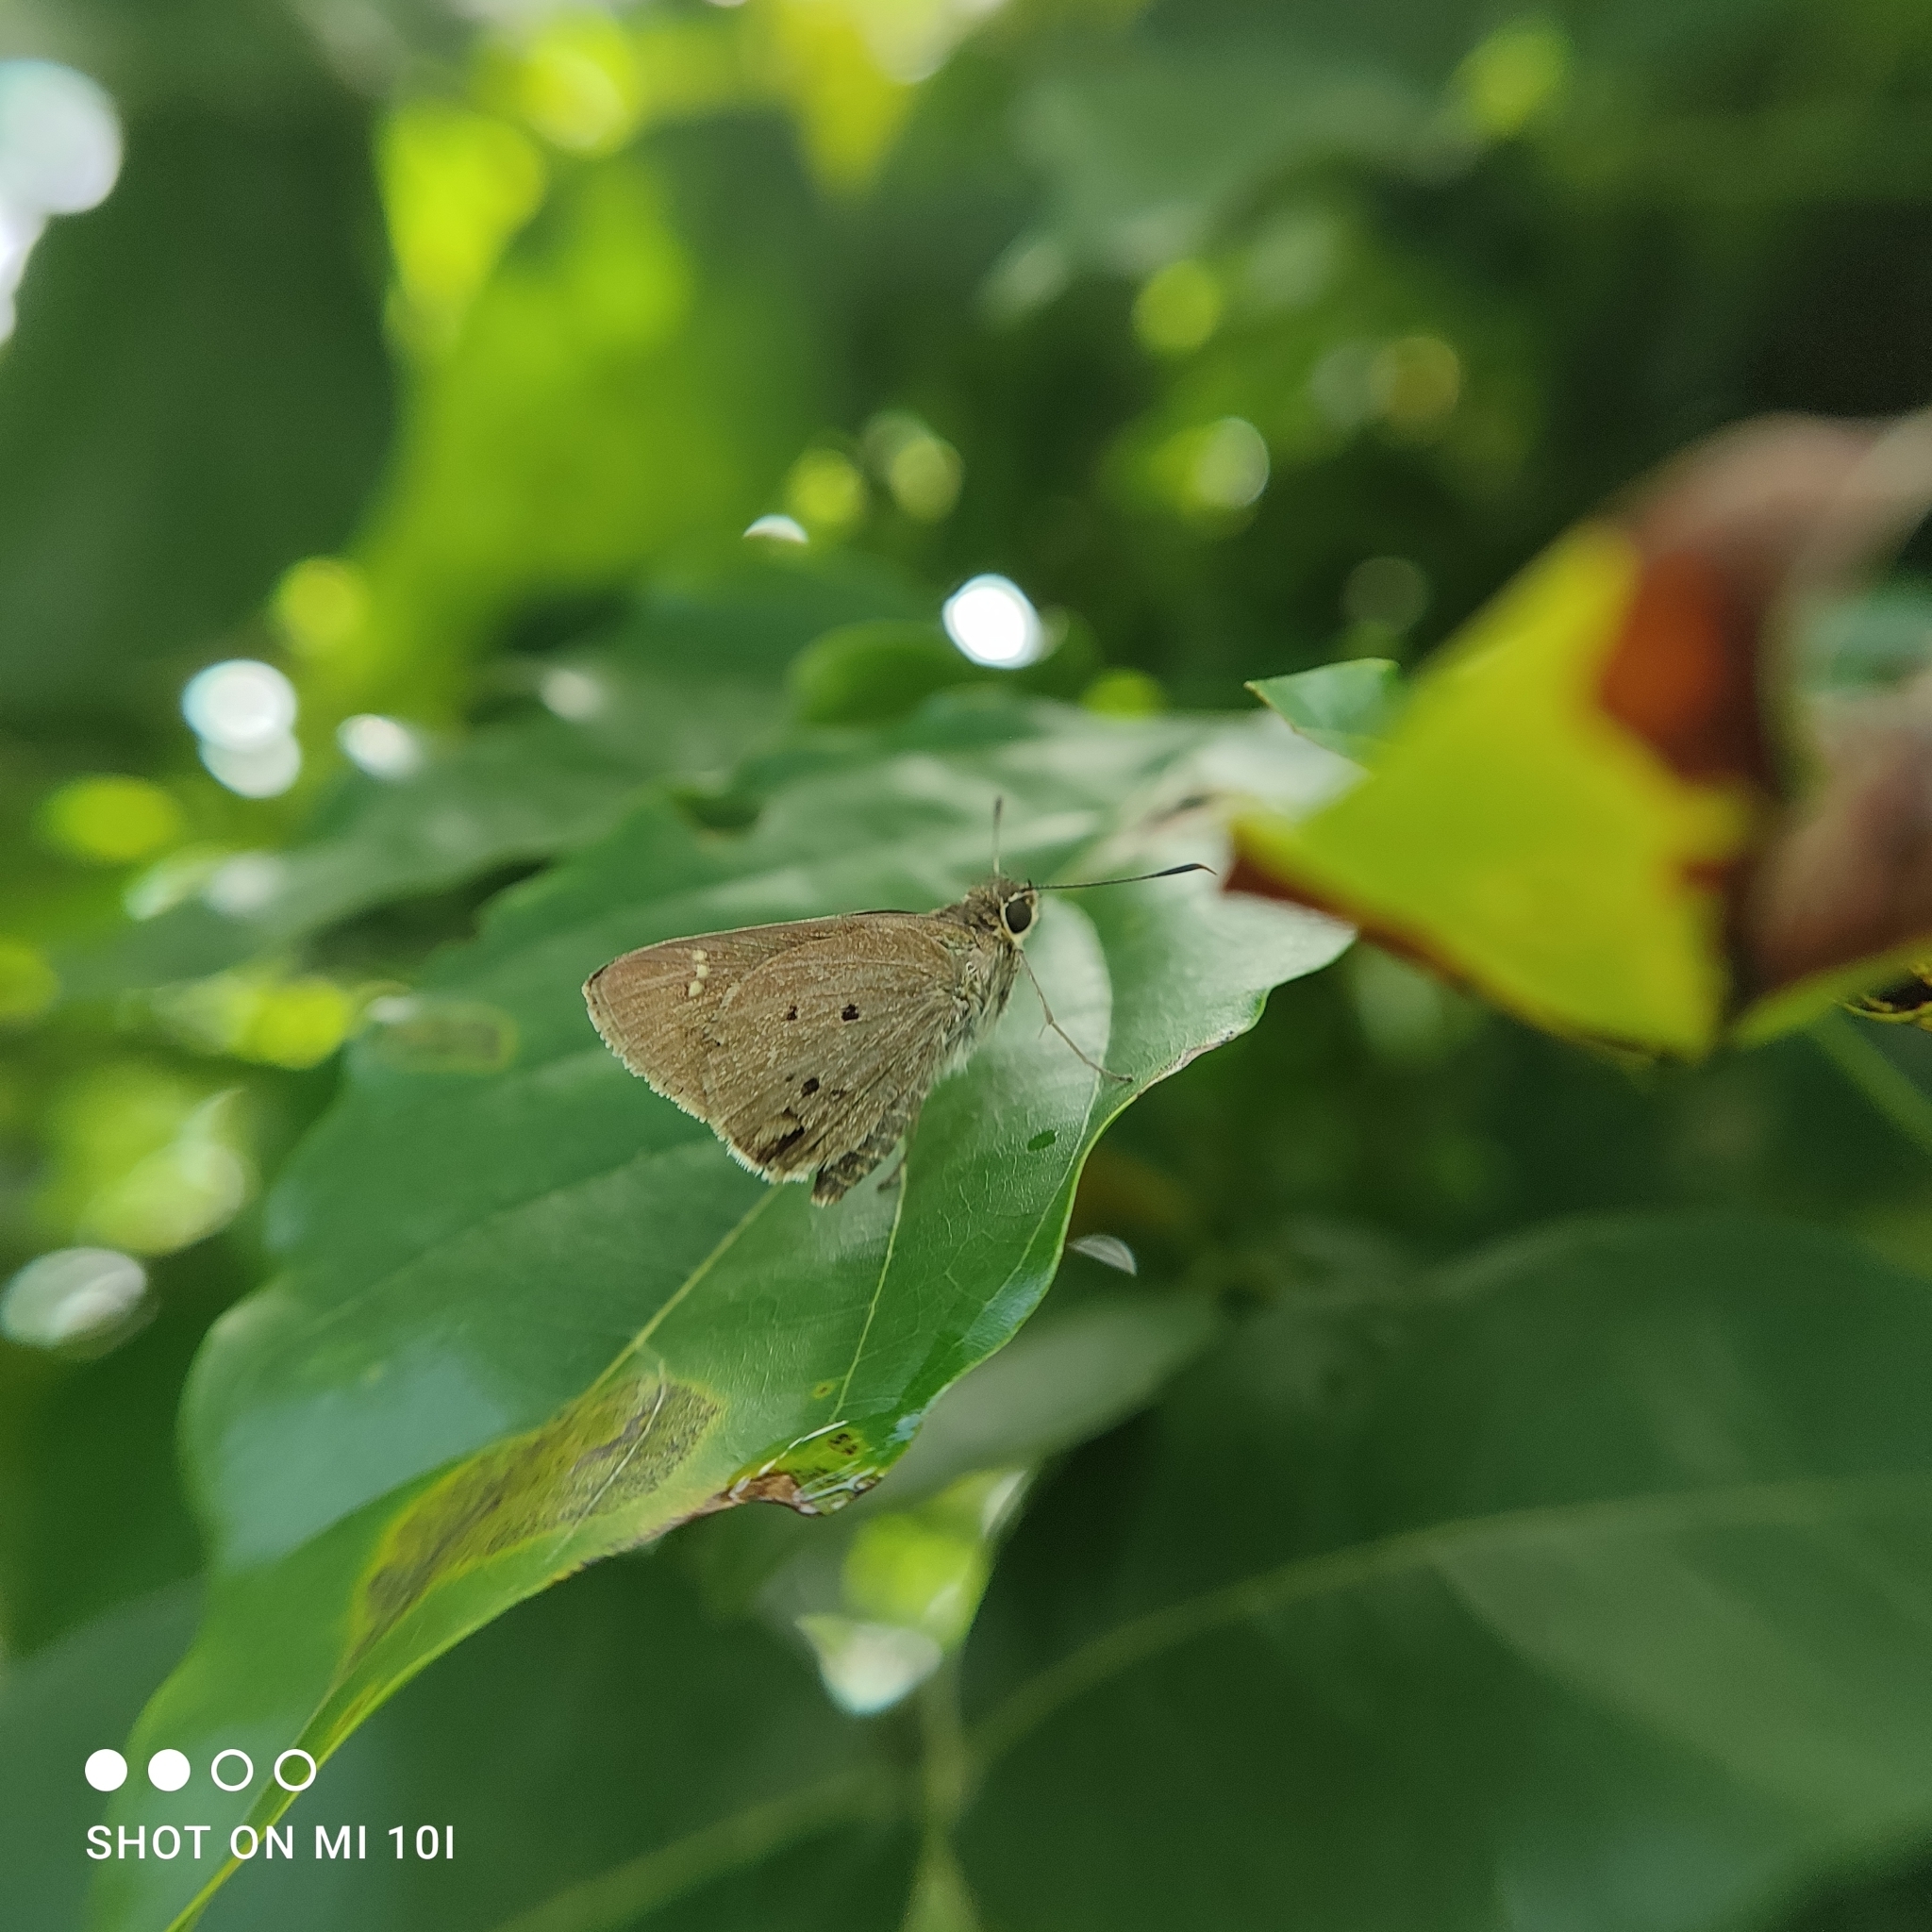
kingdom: Animalia
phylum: Arthropoda
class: Insecta
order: Lepidoptera
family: Hesperiidae
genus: Suastus
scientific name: Suastus gremius
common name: Indian palm bob
